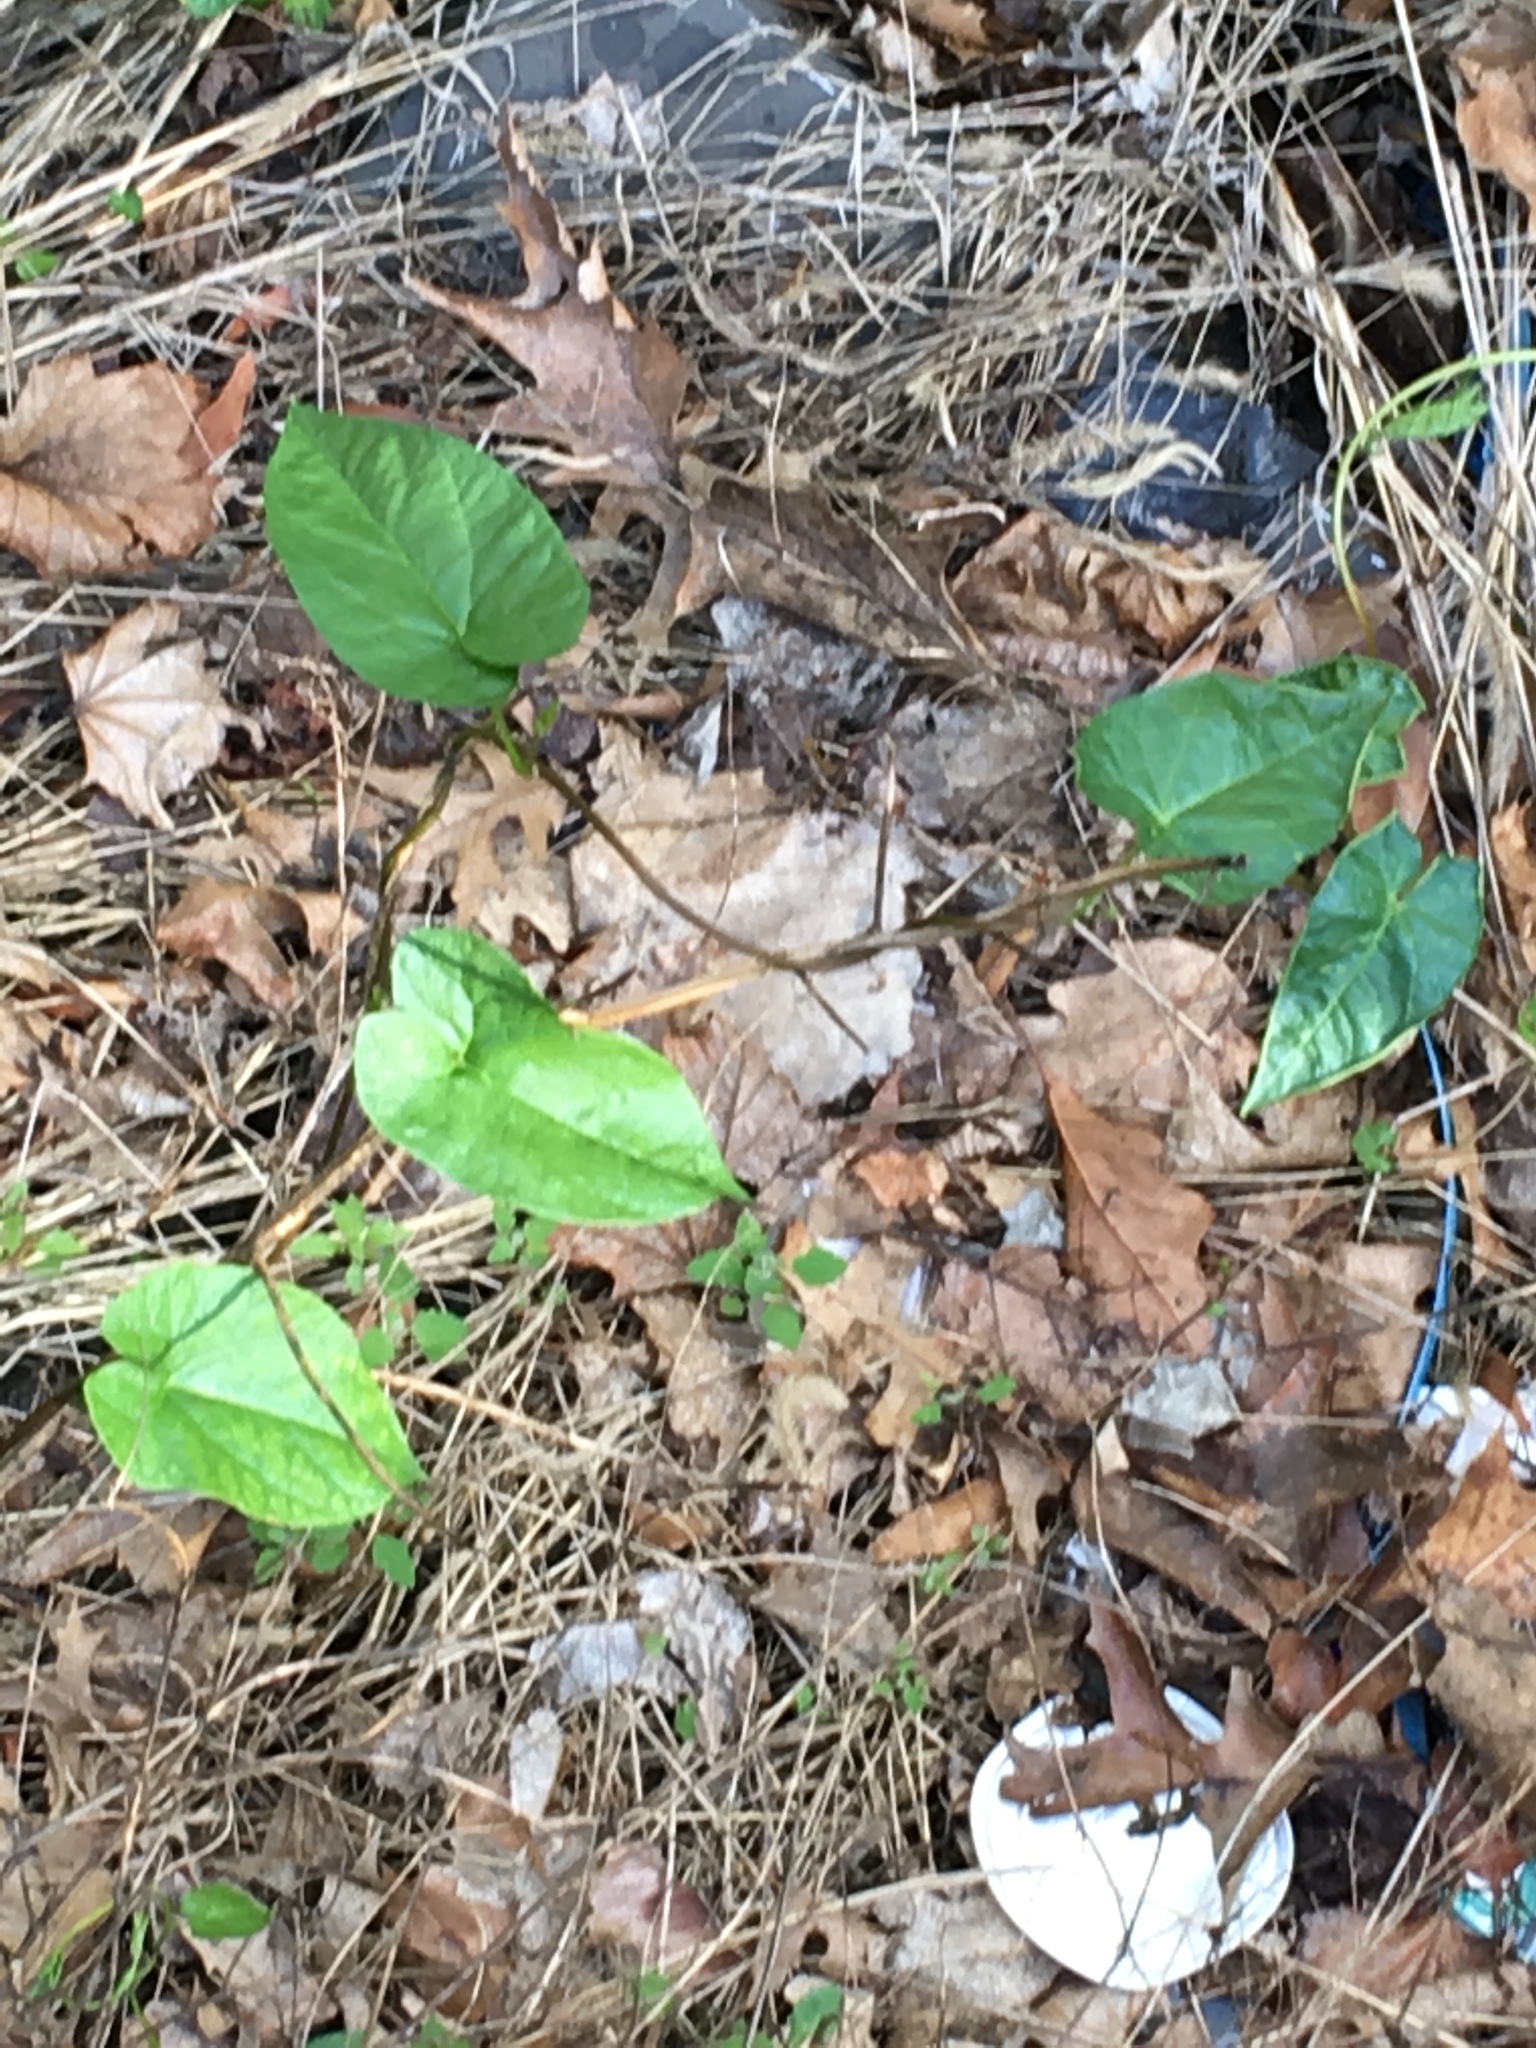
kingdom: Plantae
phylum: Tracheophyta
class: Magnoliopsida
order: Solanales
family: Convolvulaceae
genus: Calystegia
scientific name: Calystegia sepium
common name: Hedge bindweed
